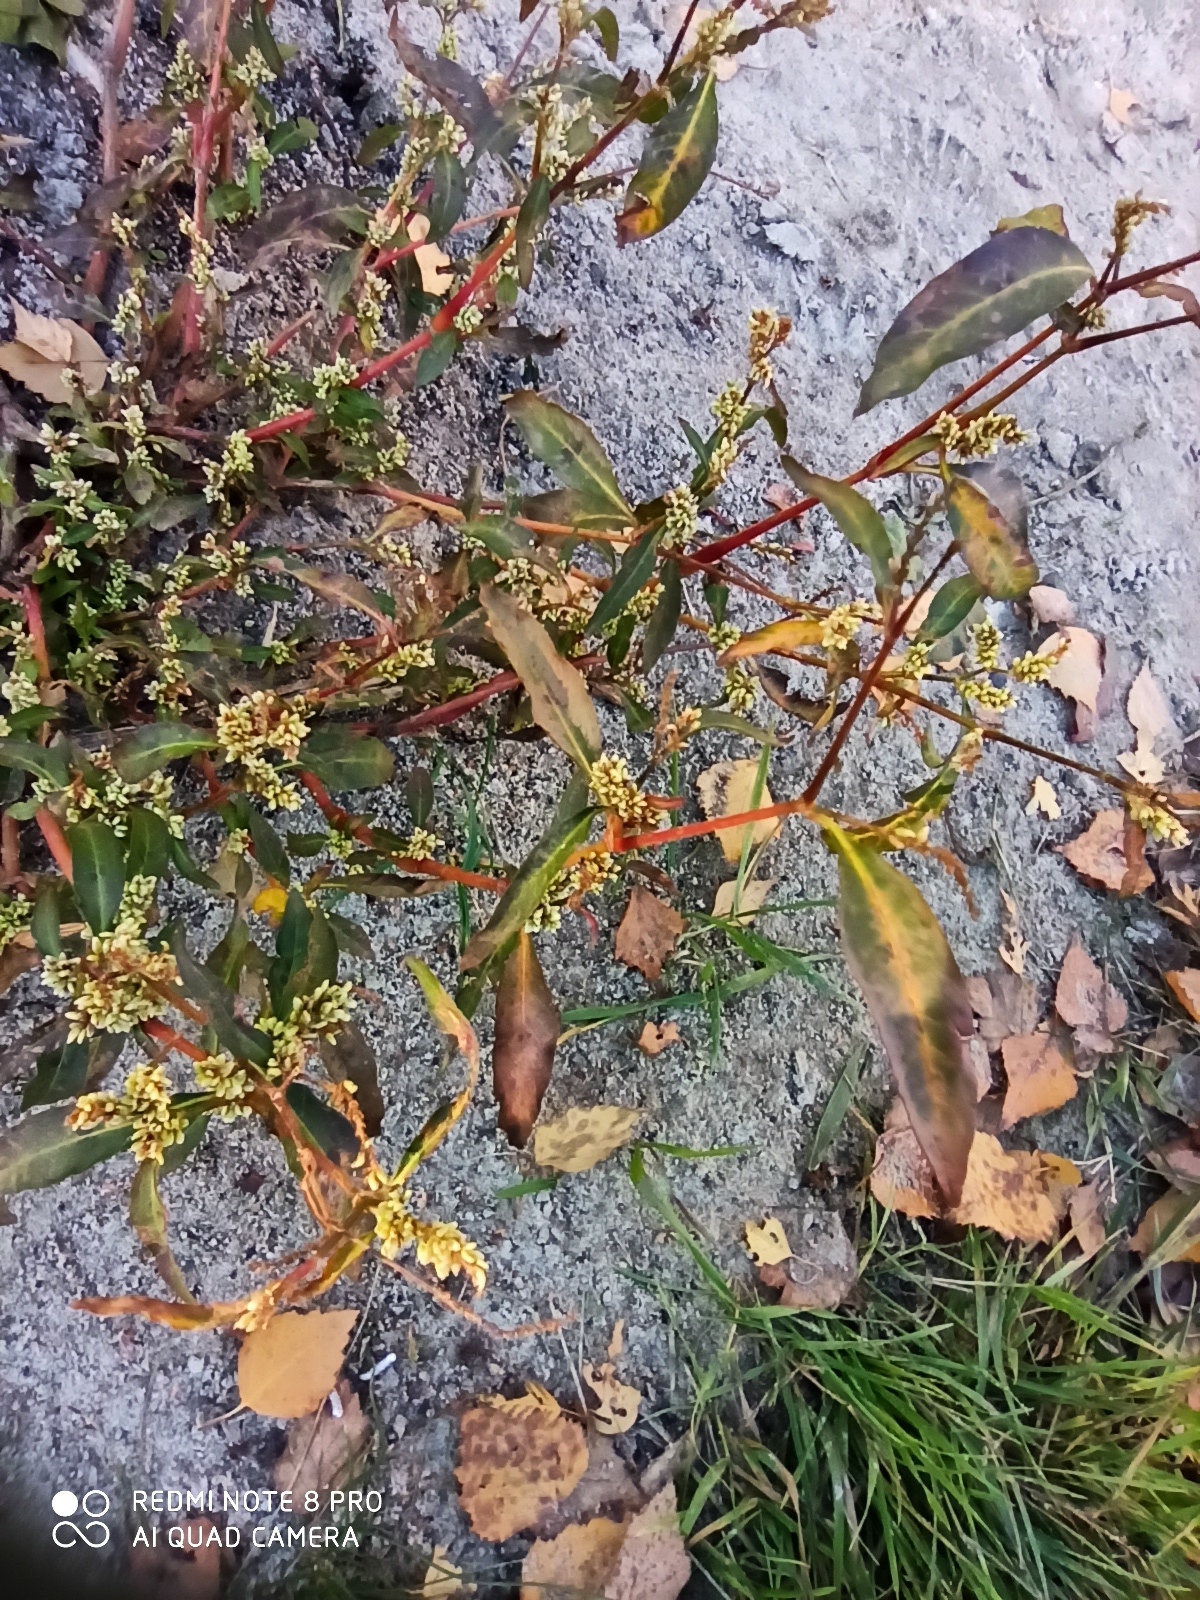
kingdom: Plantae
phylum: Tracheophyta
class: Magnoliopsida
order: Caryophyllales
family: Polygonaceae
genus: Persicaria
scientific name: Persicaria maculosa
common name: Redshank
